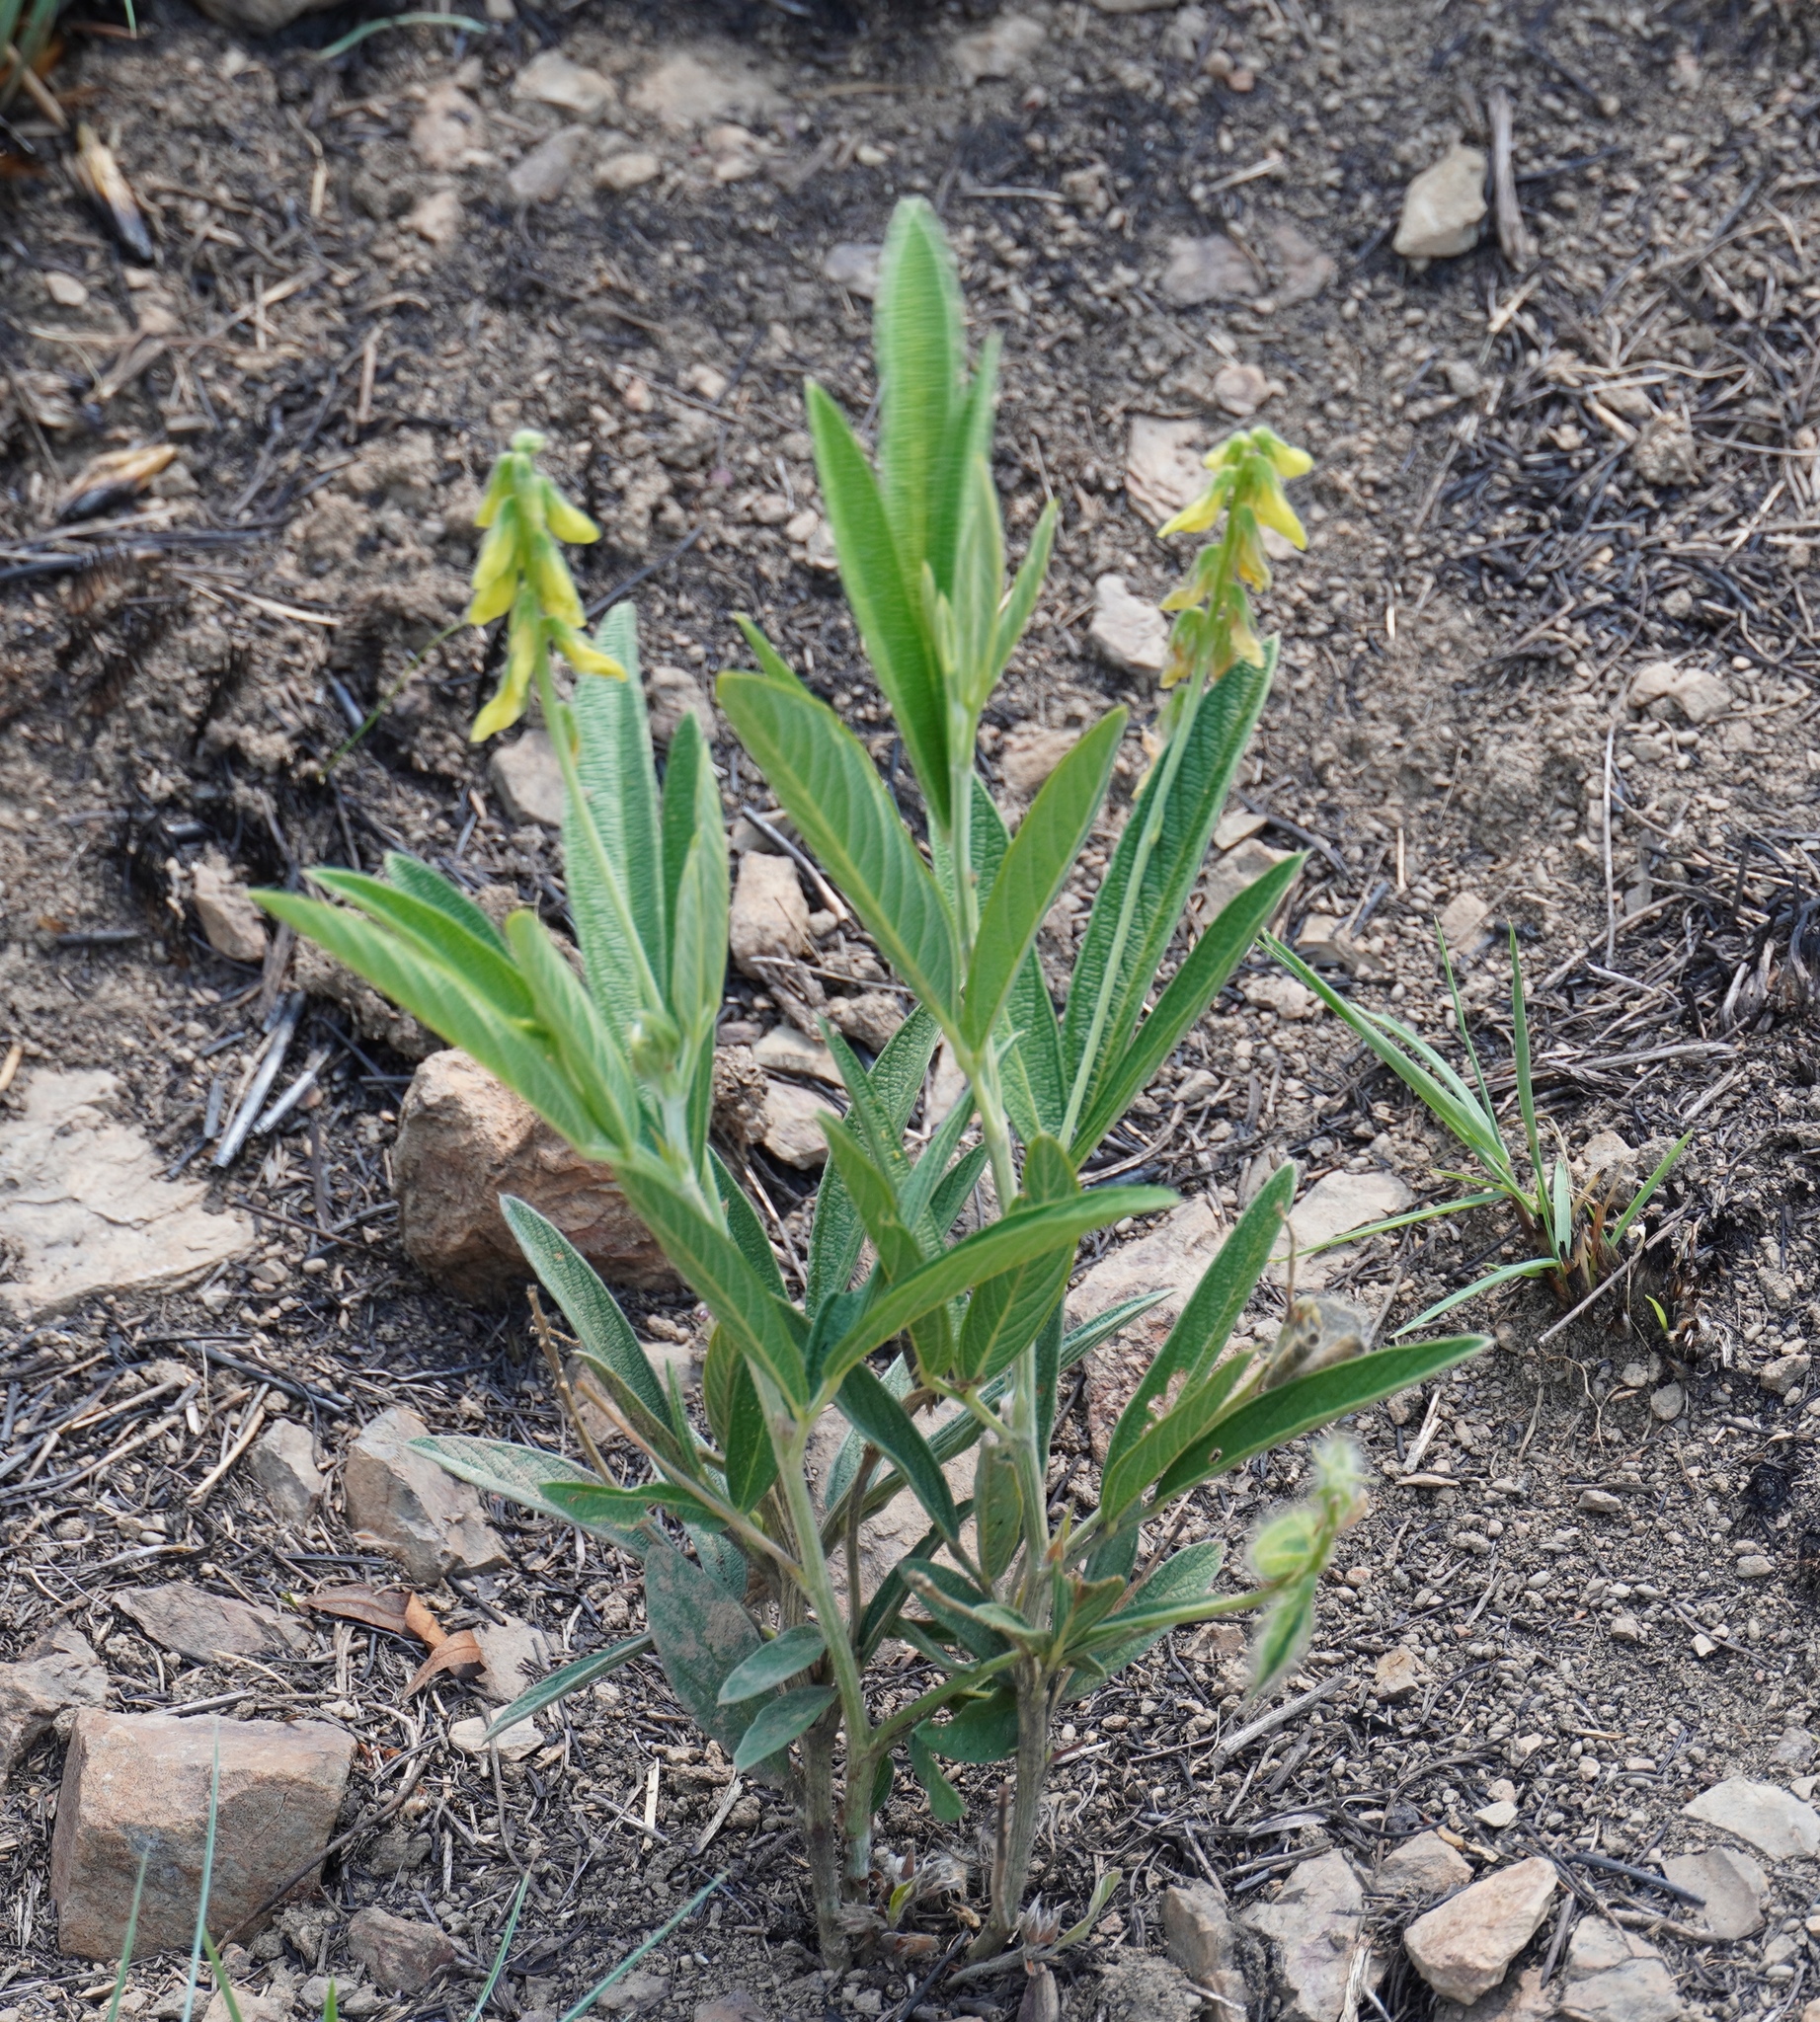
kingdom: Plantae
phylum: Tracheophyta
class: Magnoliopsida
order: Fabales
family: Fabaceae
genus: Eriosema
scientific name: Eriosema burkei
